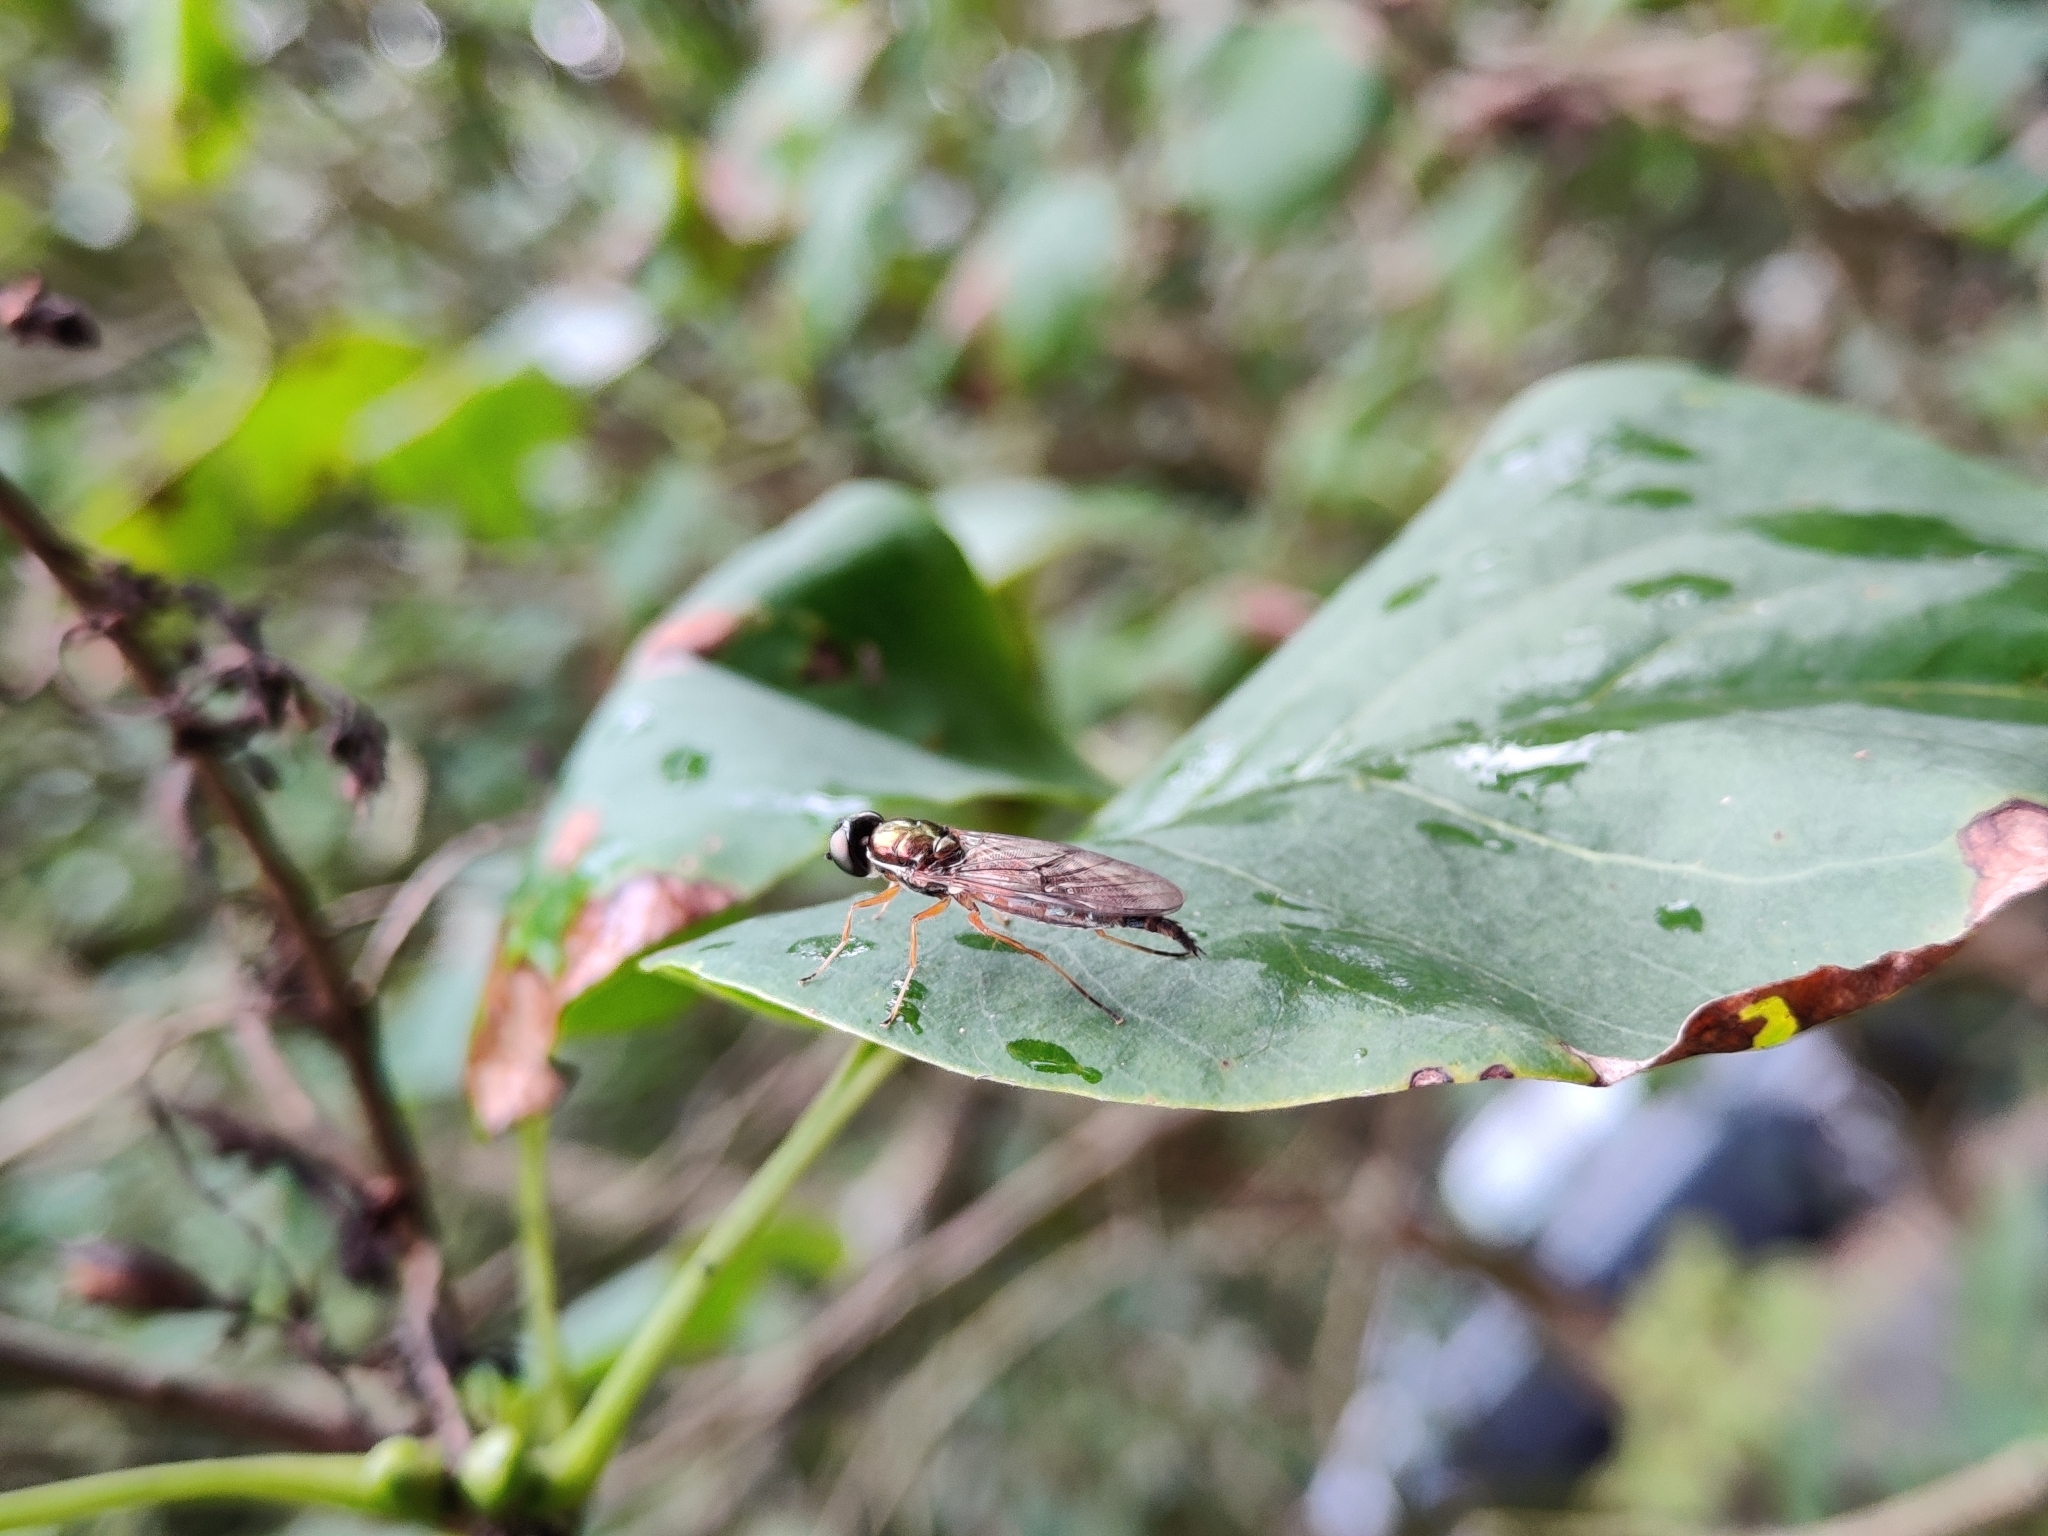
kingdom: Animalia
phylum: Arthropoda
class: Insecta
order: Diptera
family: Stratiomyidae
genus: Sargus
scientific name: Sargus bipunctatus
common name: Twin-spot centurion
